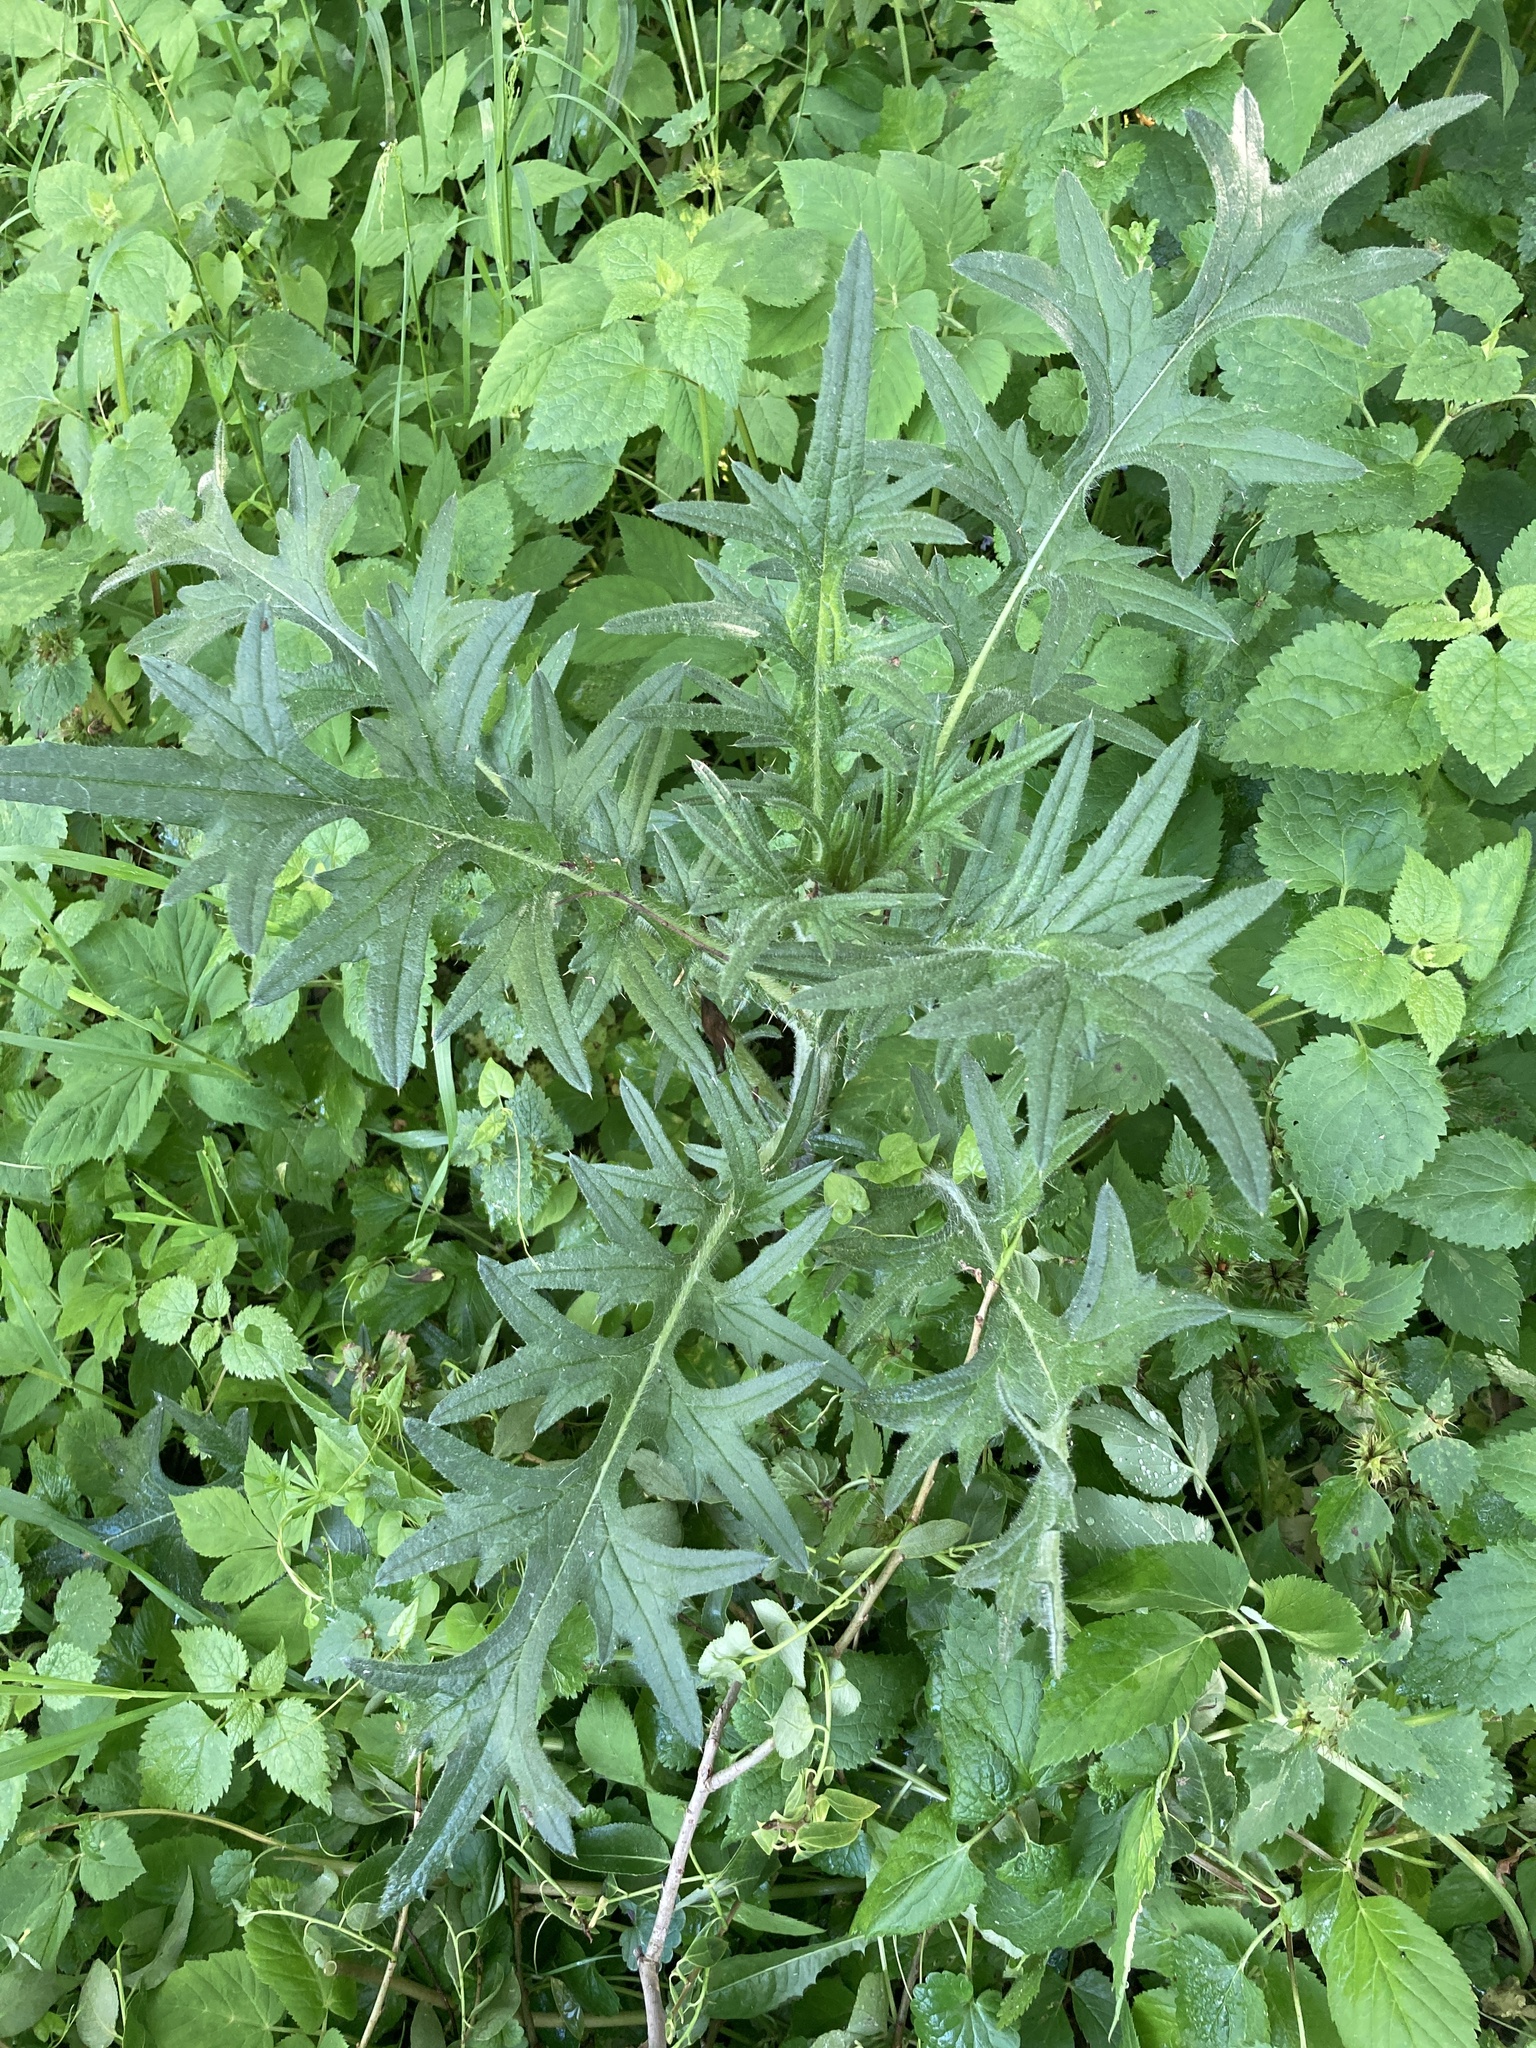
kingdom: Plantae
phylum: Tracheophyta
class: Magnoliopsida
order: Asterales
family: Asteraceae
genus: Cirsium
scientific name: Cirsium vulgare
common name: Bull thistle
